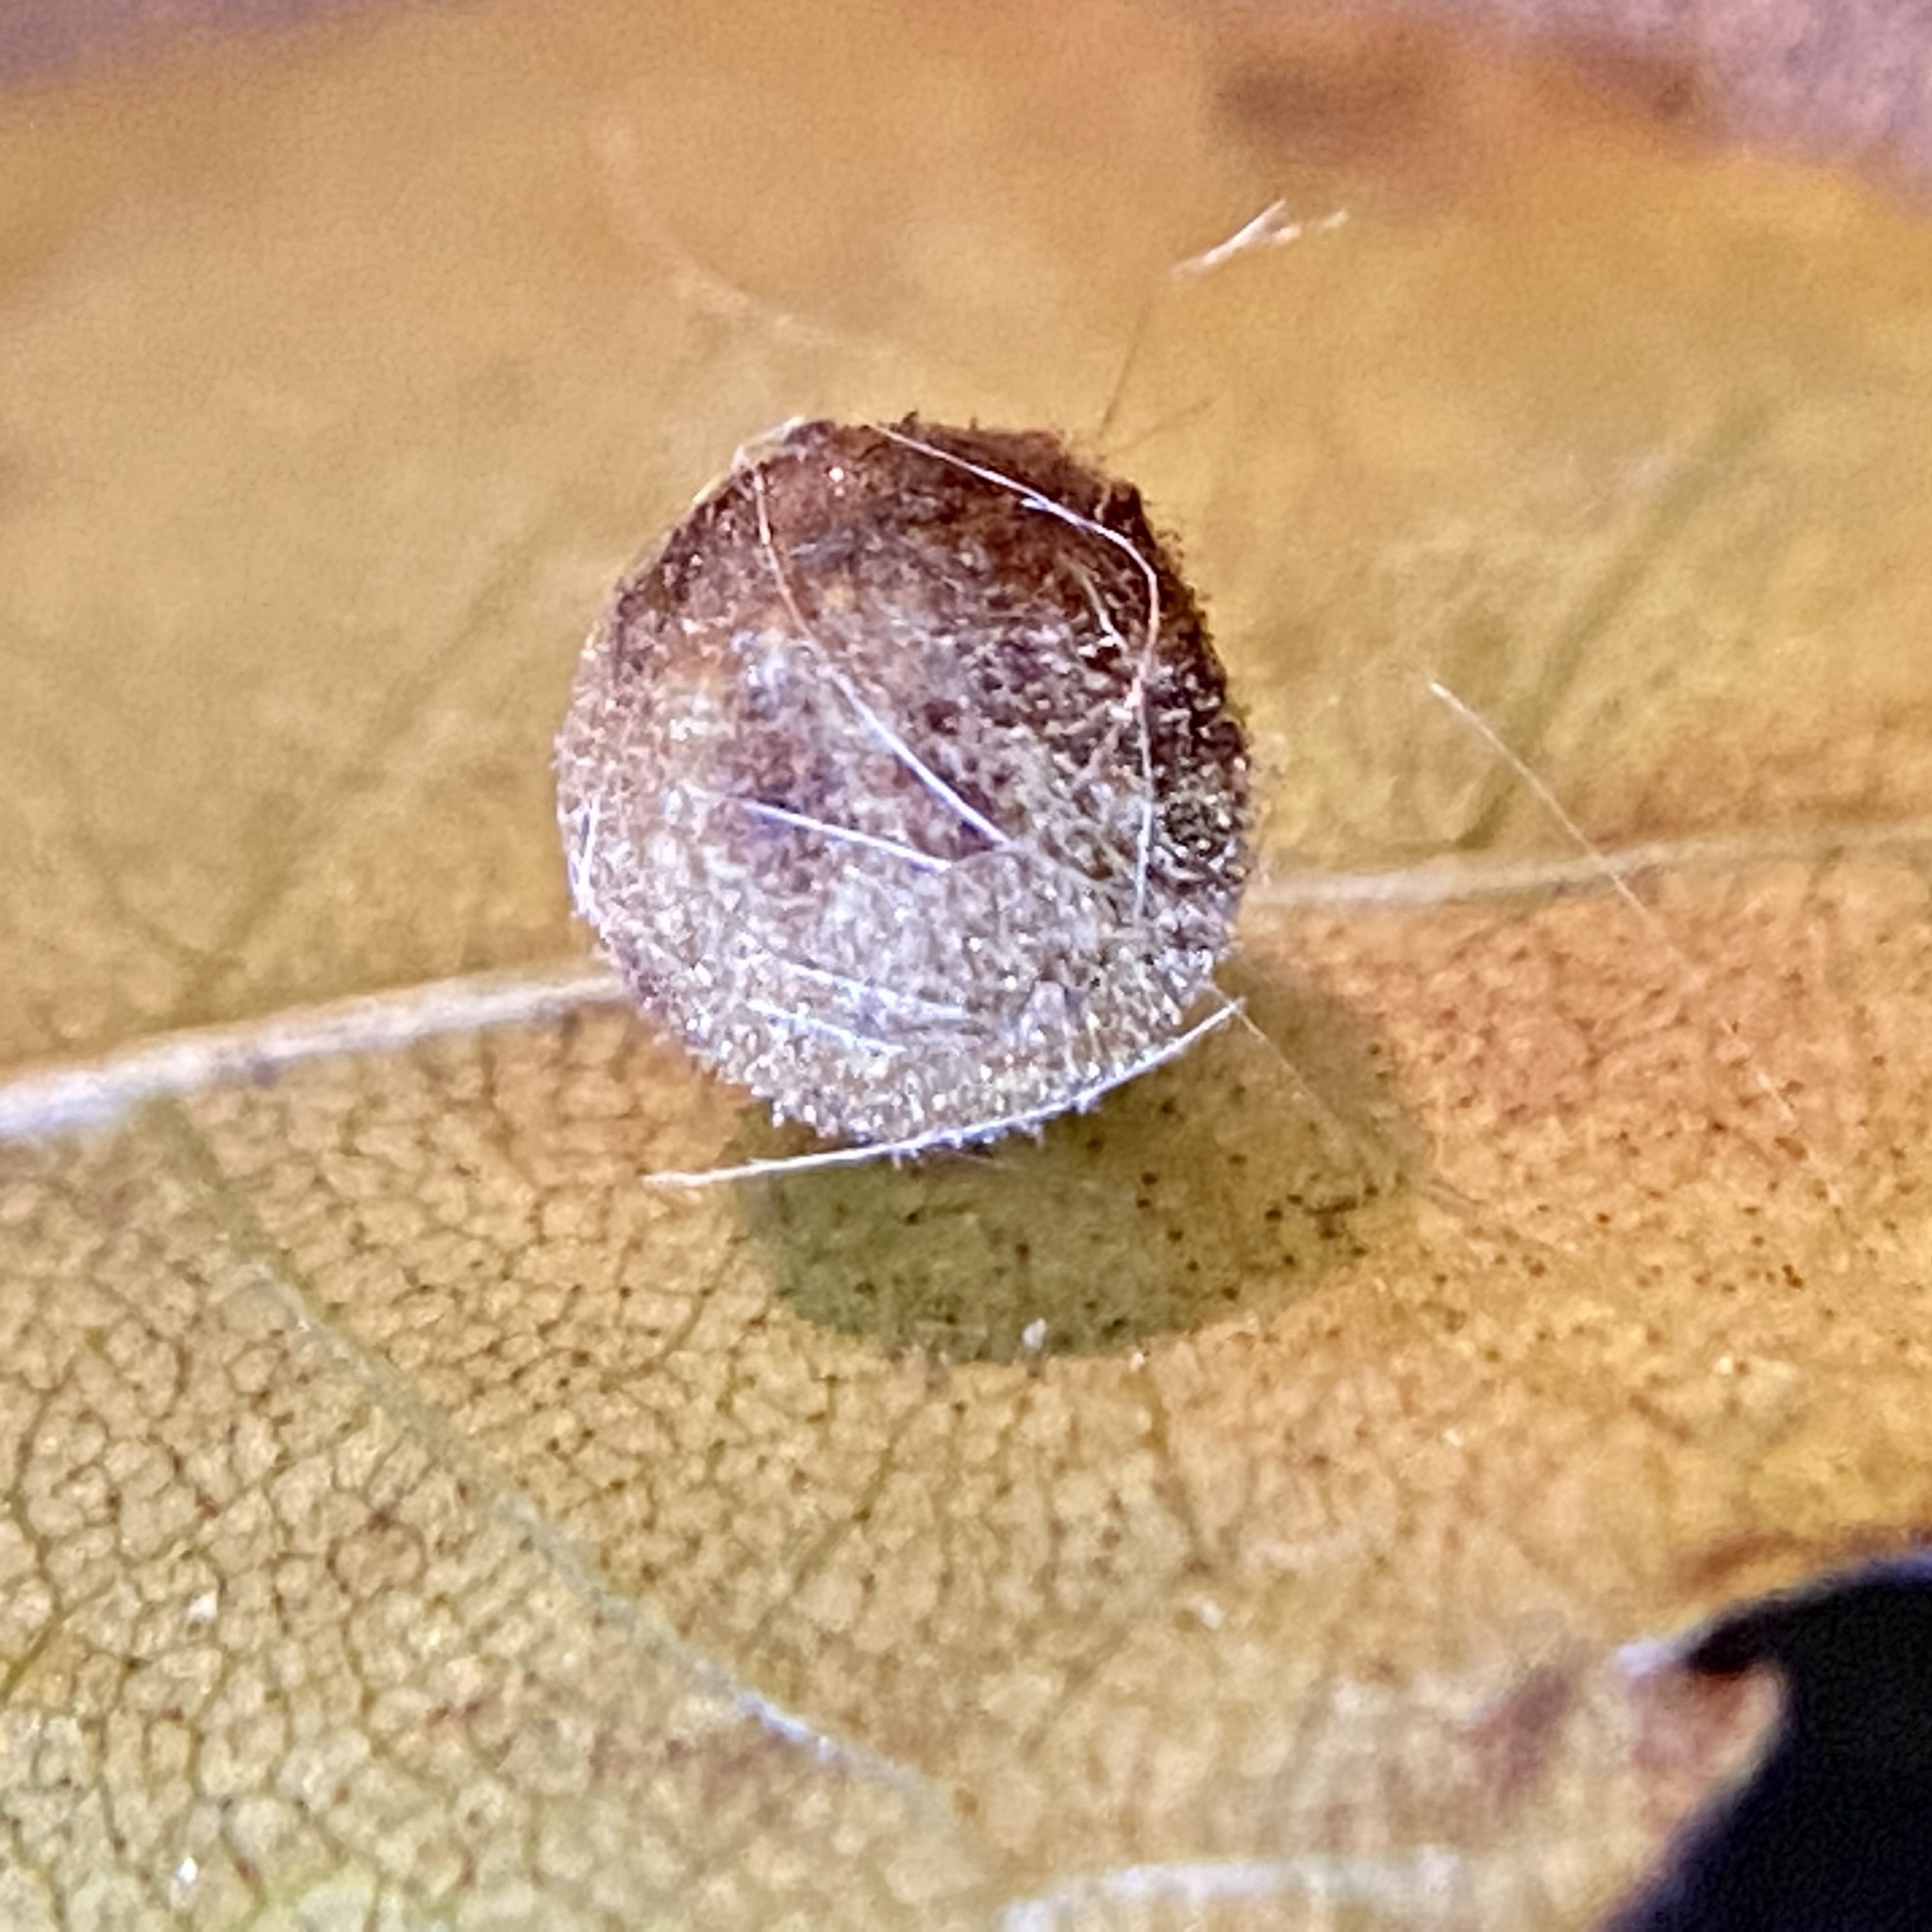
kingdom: Animalia
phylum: Arthropoda
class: Insecta
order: Diptera
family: Cecidomyiidae
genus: Caryomyia
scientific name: Caryomyia tuberidolium
